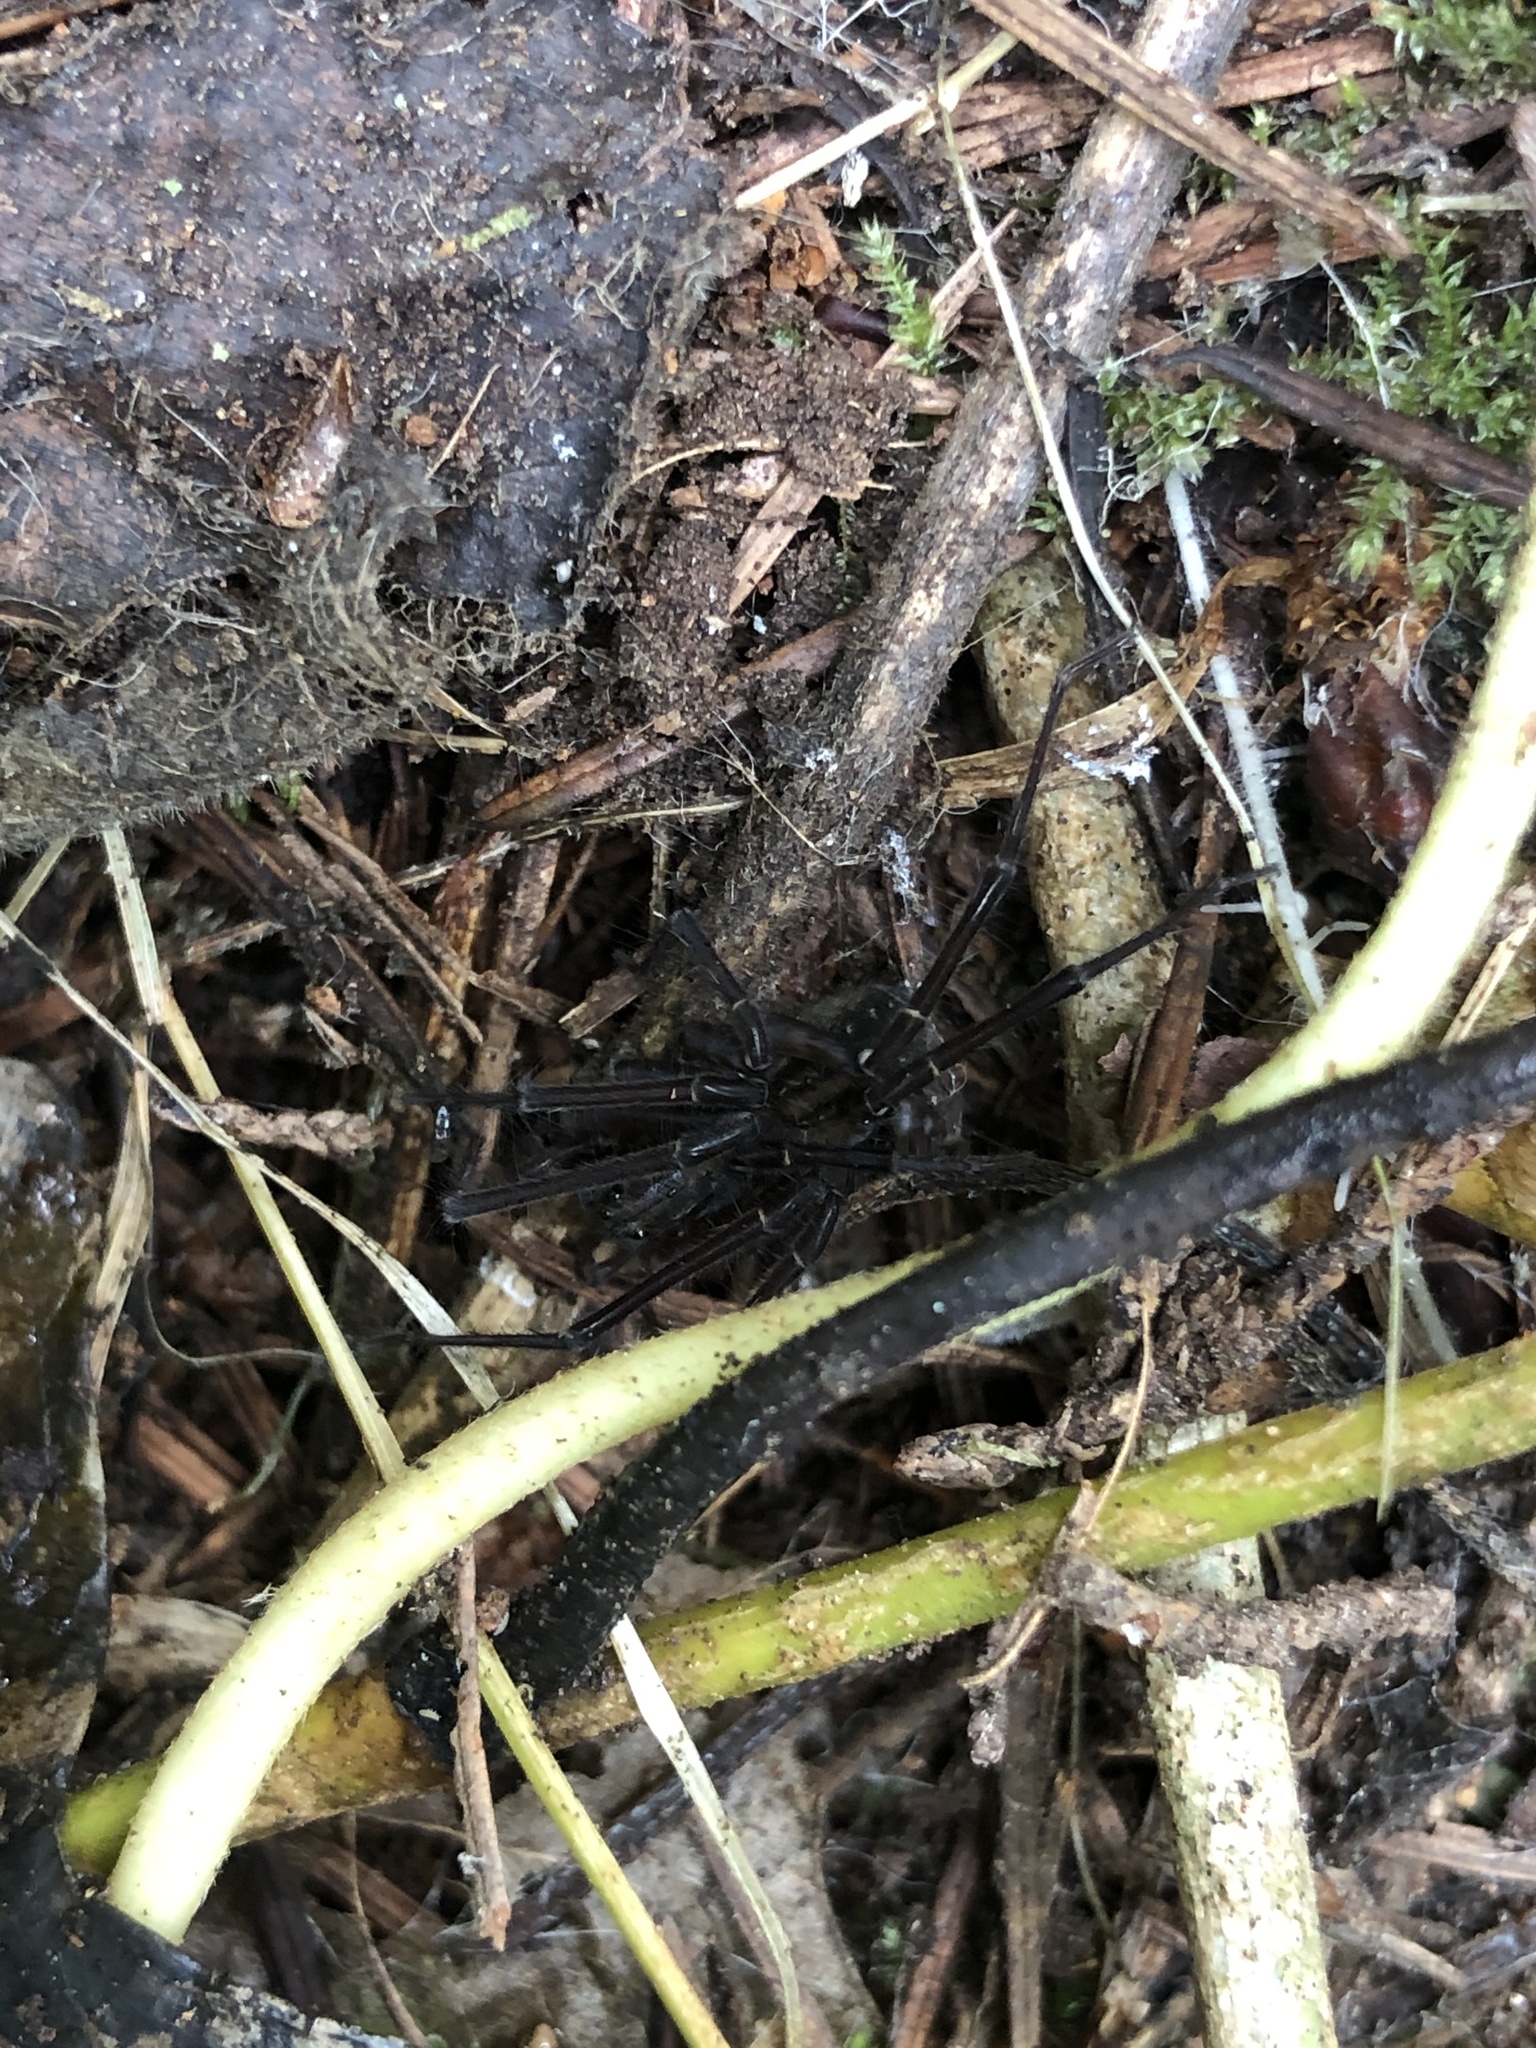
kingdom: Animalia
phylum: Arthropoda
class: Arachnida
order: Araneae
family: Lycosidae
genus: Allotrochosina
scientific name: Allotrochosina schauinslandi
